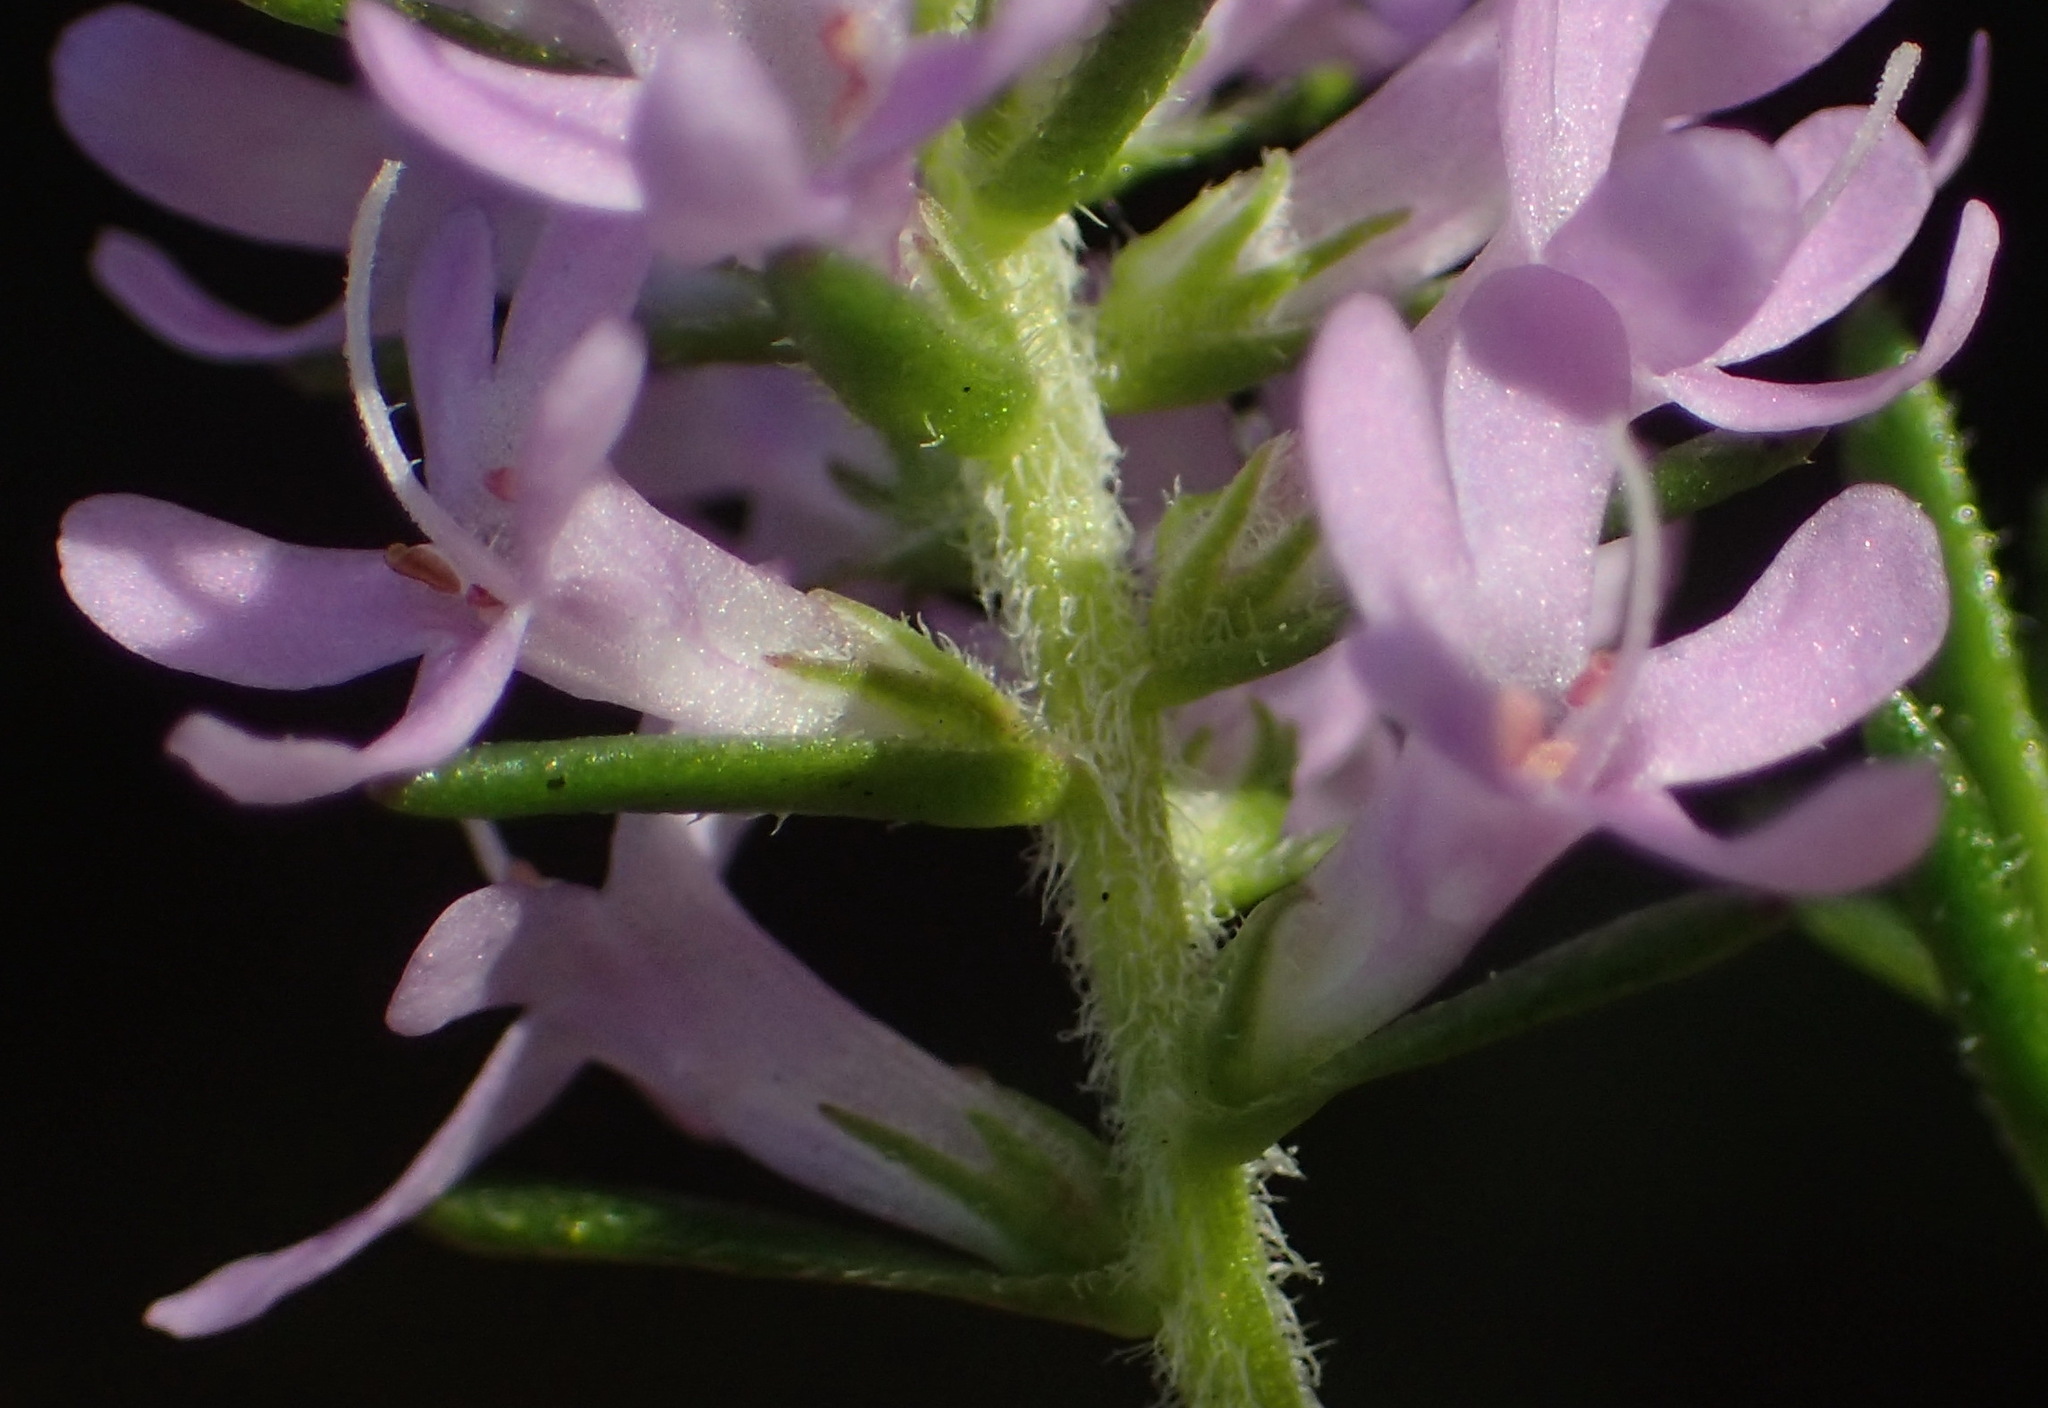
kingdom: Plantae
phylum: Tracheophyta
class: Magnoliopsida
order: Lamiales
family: Scrophulariaceae
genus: Selago
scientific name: Selago villicaulis
